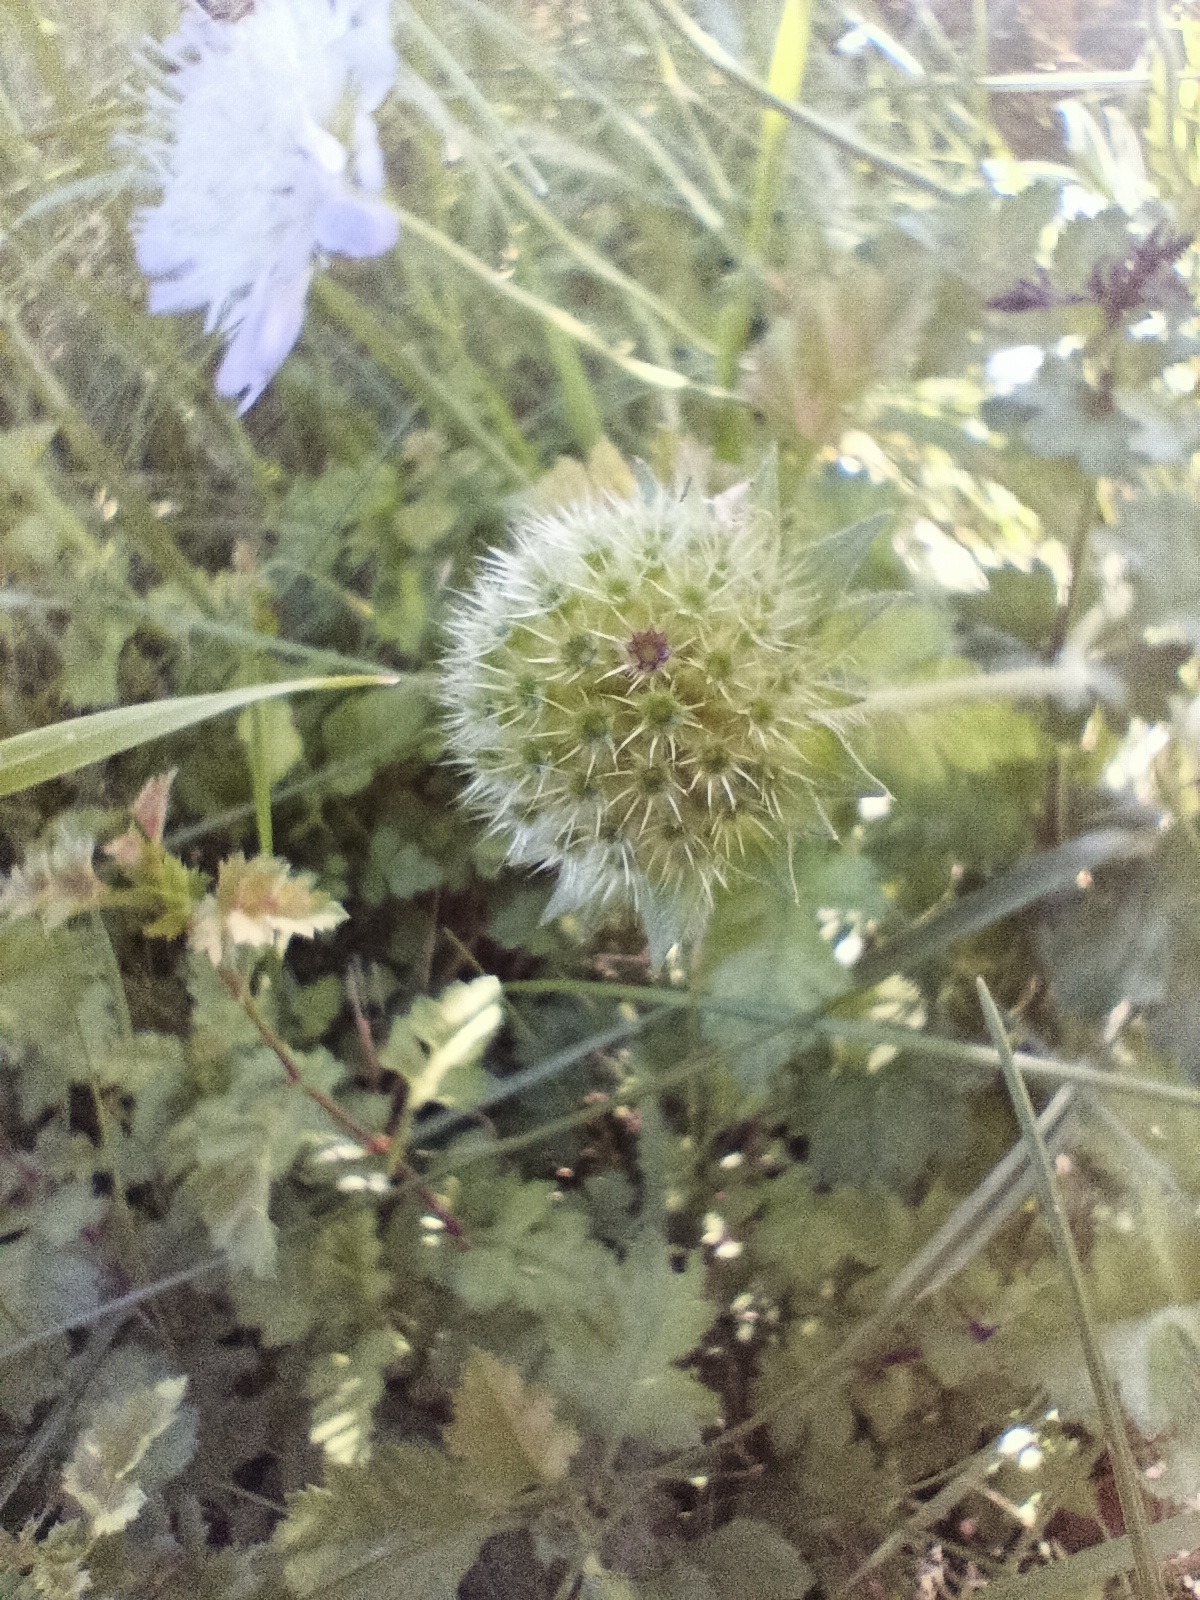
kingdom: Plantae
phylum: Tracheophyta
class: Magnoliopsida
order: Dipsacales
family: Caprifoliaceae
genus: Knautia
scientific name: Knautia arvensis
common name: Field scabiosa
